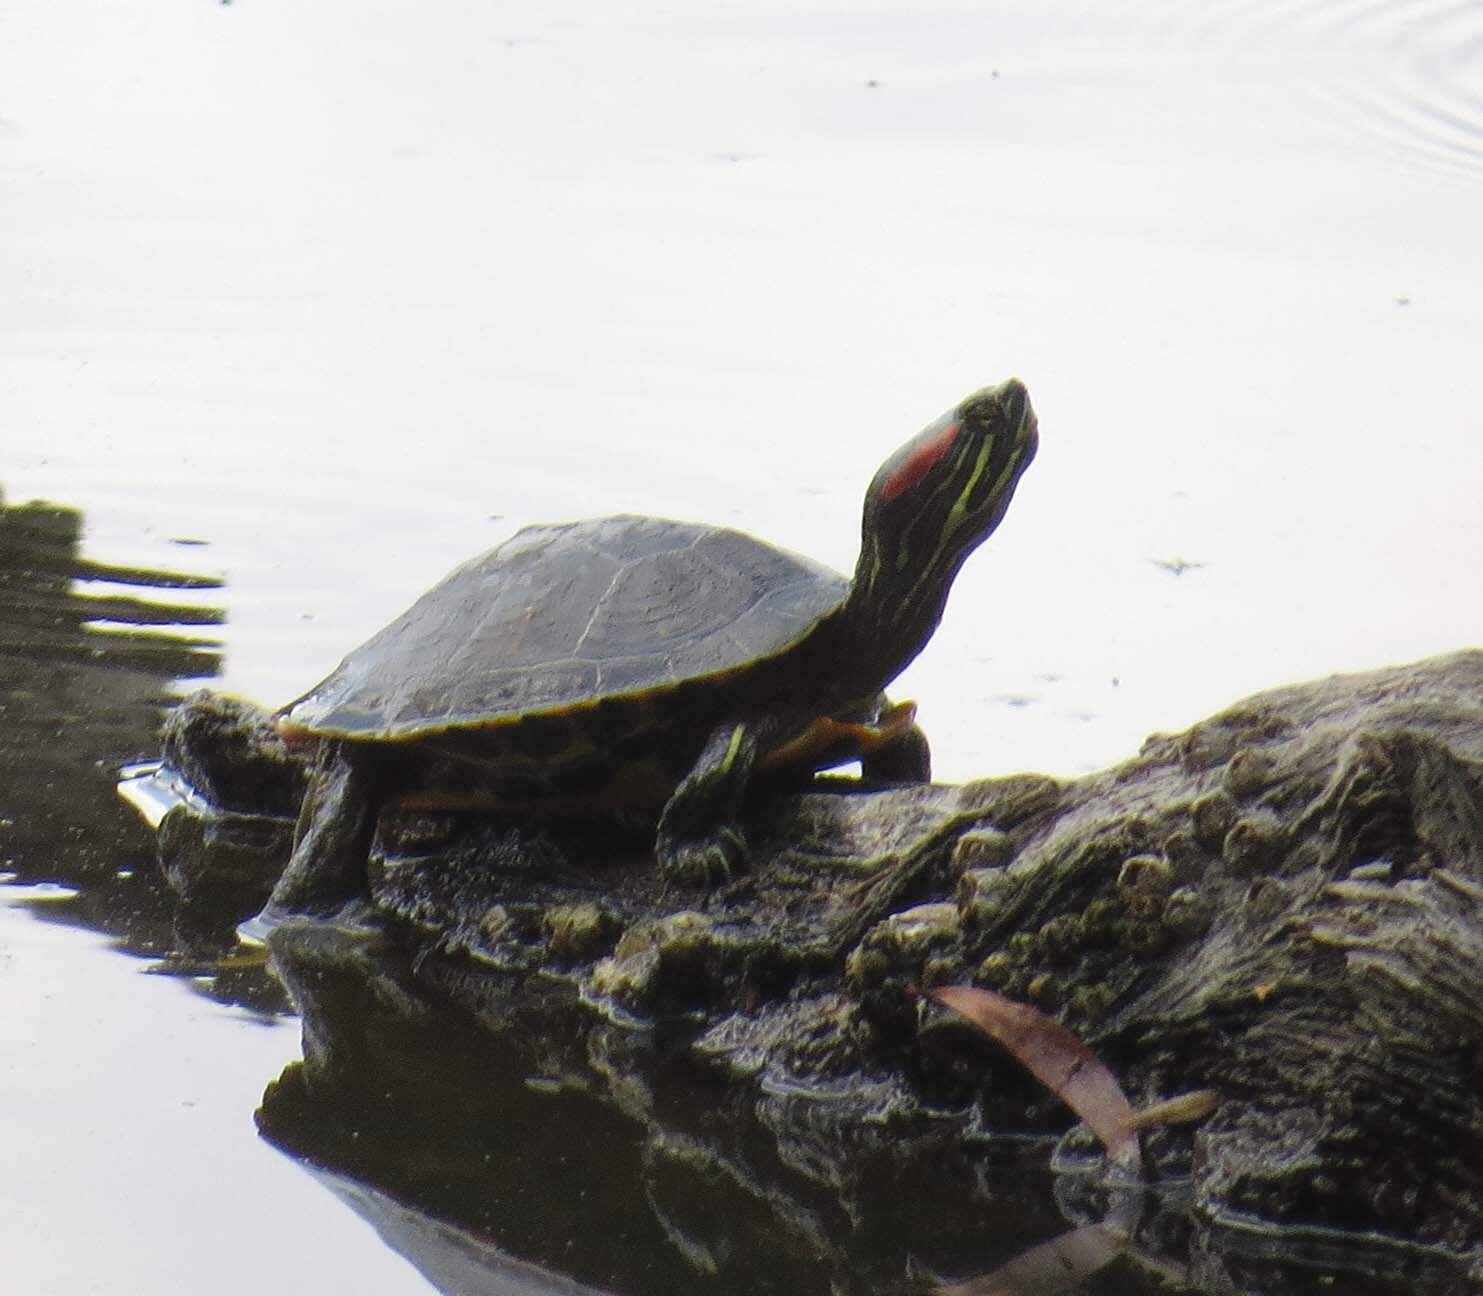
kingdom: Animalia
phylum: Chordata
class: Testudines
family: Emydidae
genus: Trachemys
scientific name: Trachemys scripta
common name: Slider
